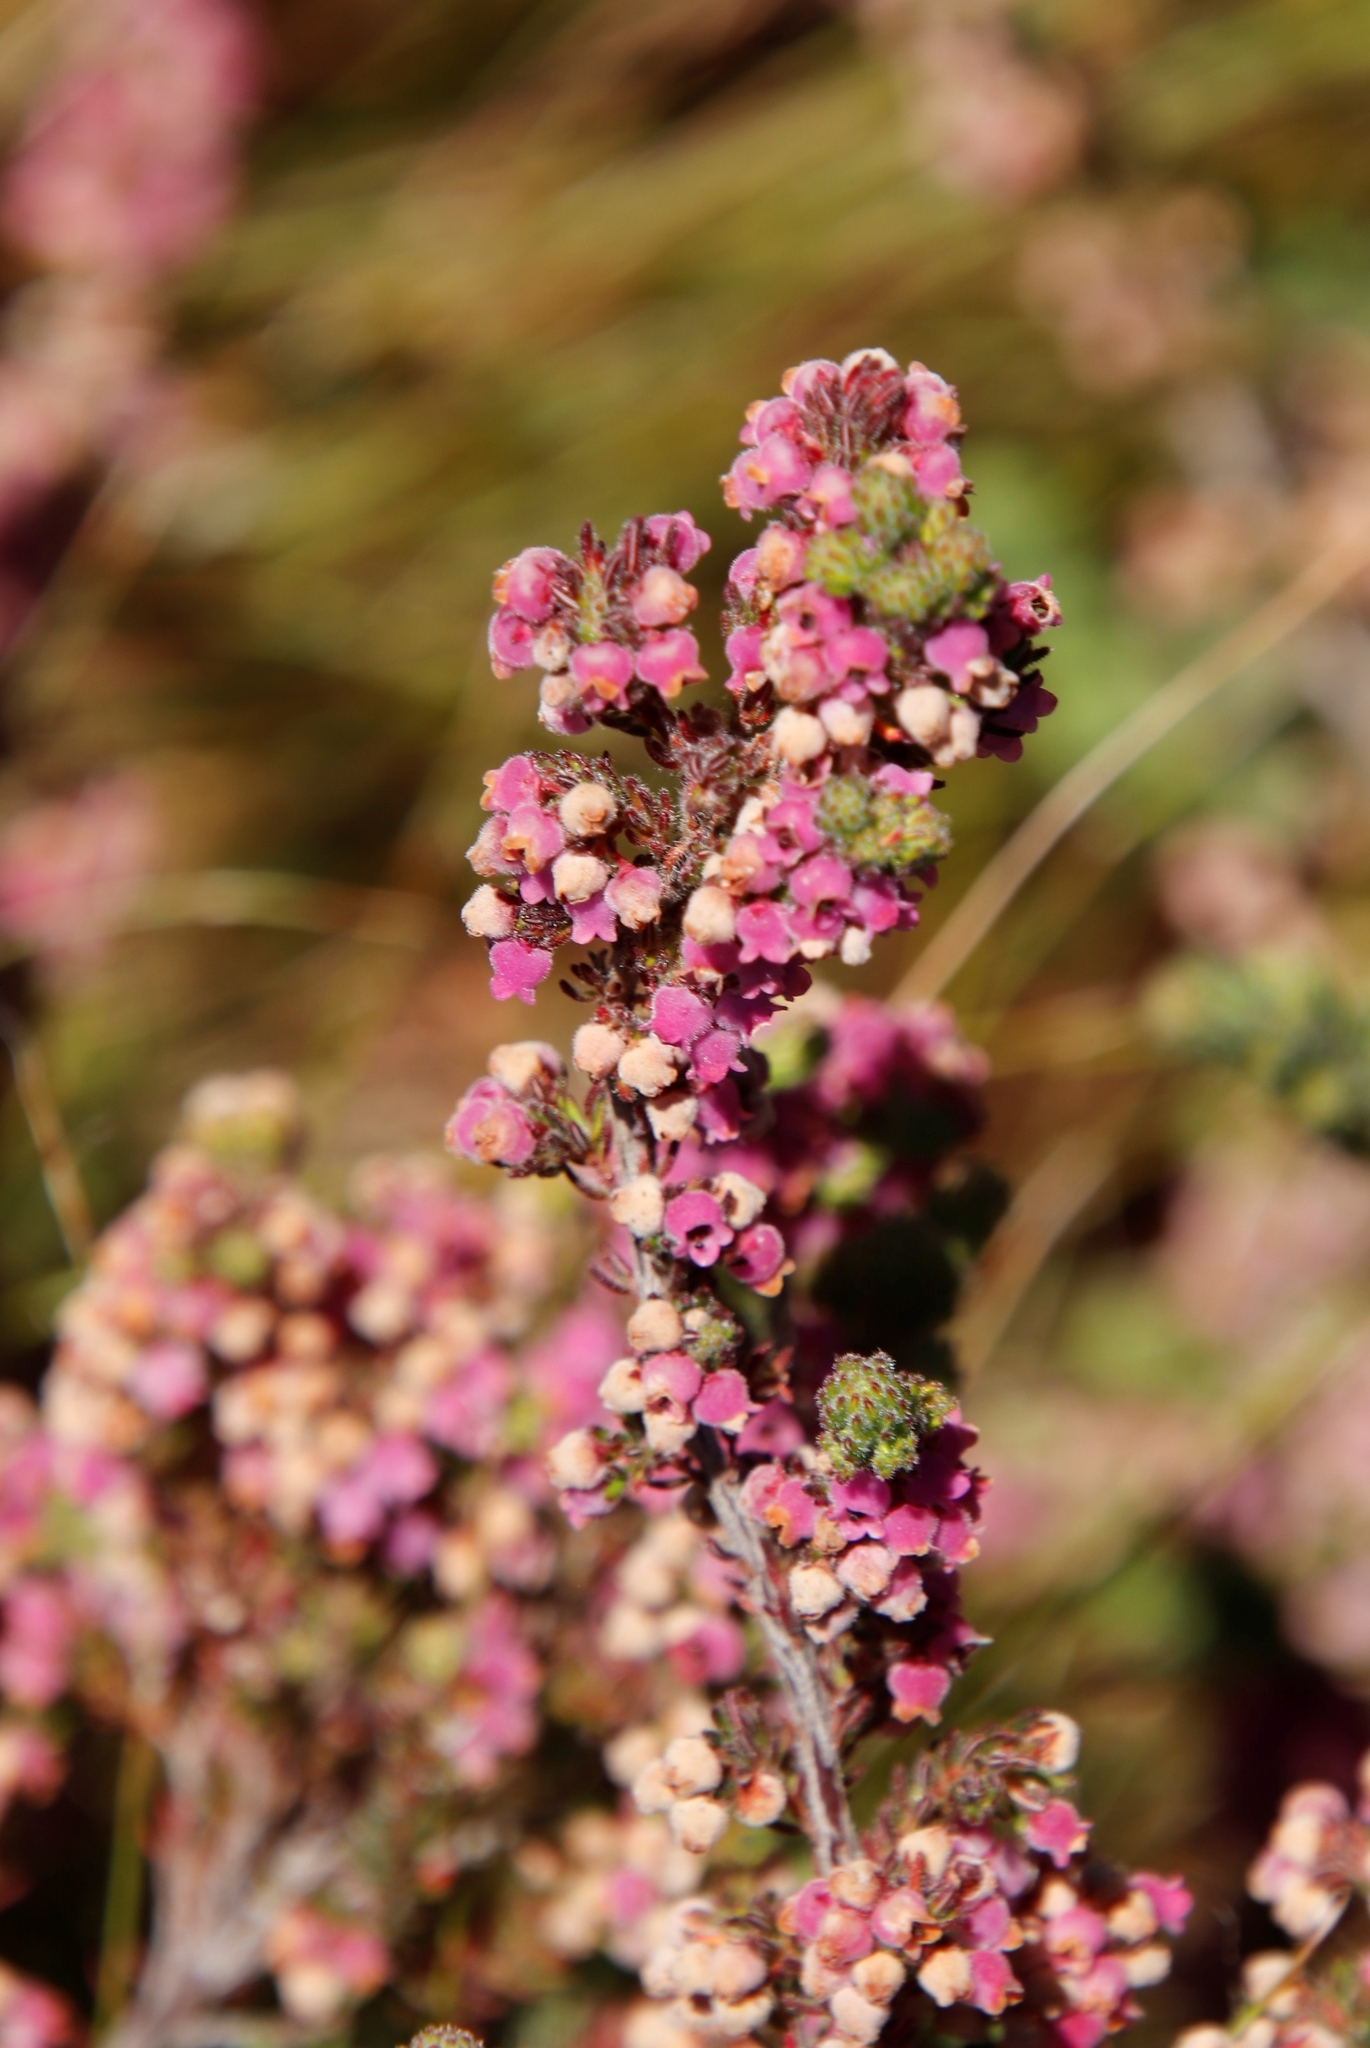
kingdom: Plantae
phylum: Tracheophyta
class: Magnoliopsida
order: Ericales
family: Ericaceae
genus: Erica
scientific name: Erica mollis
